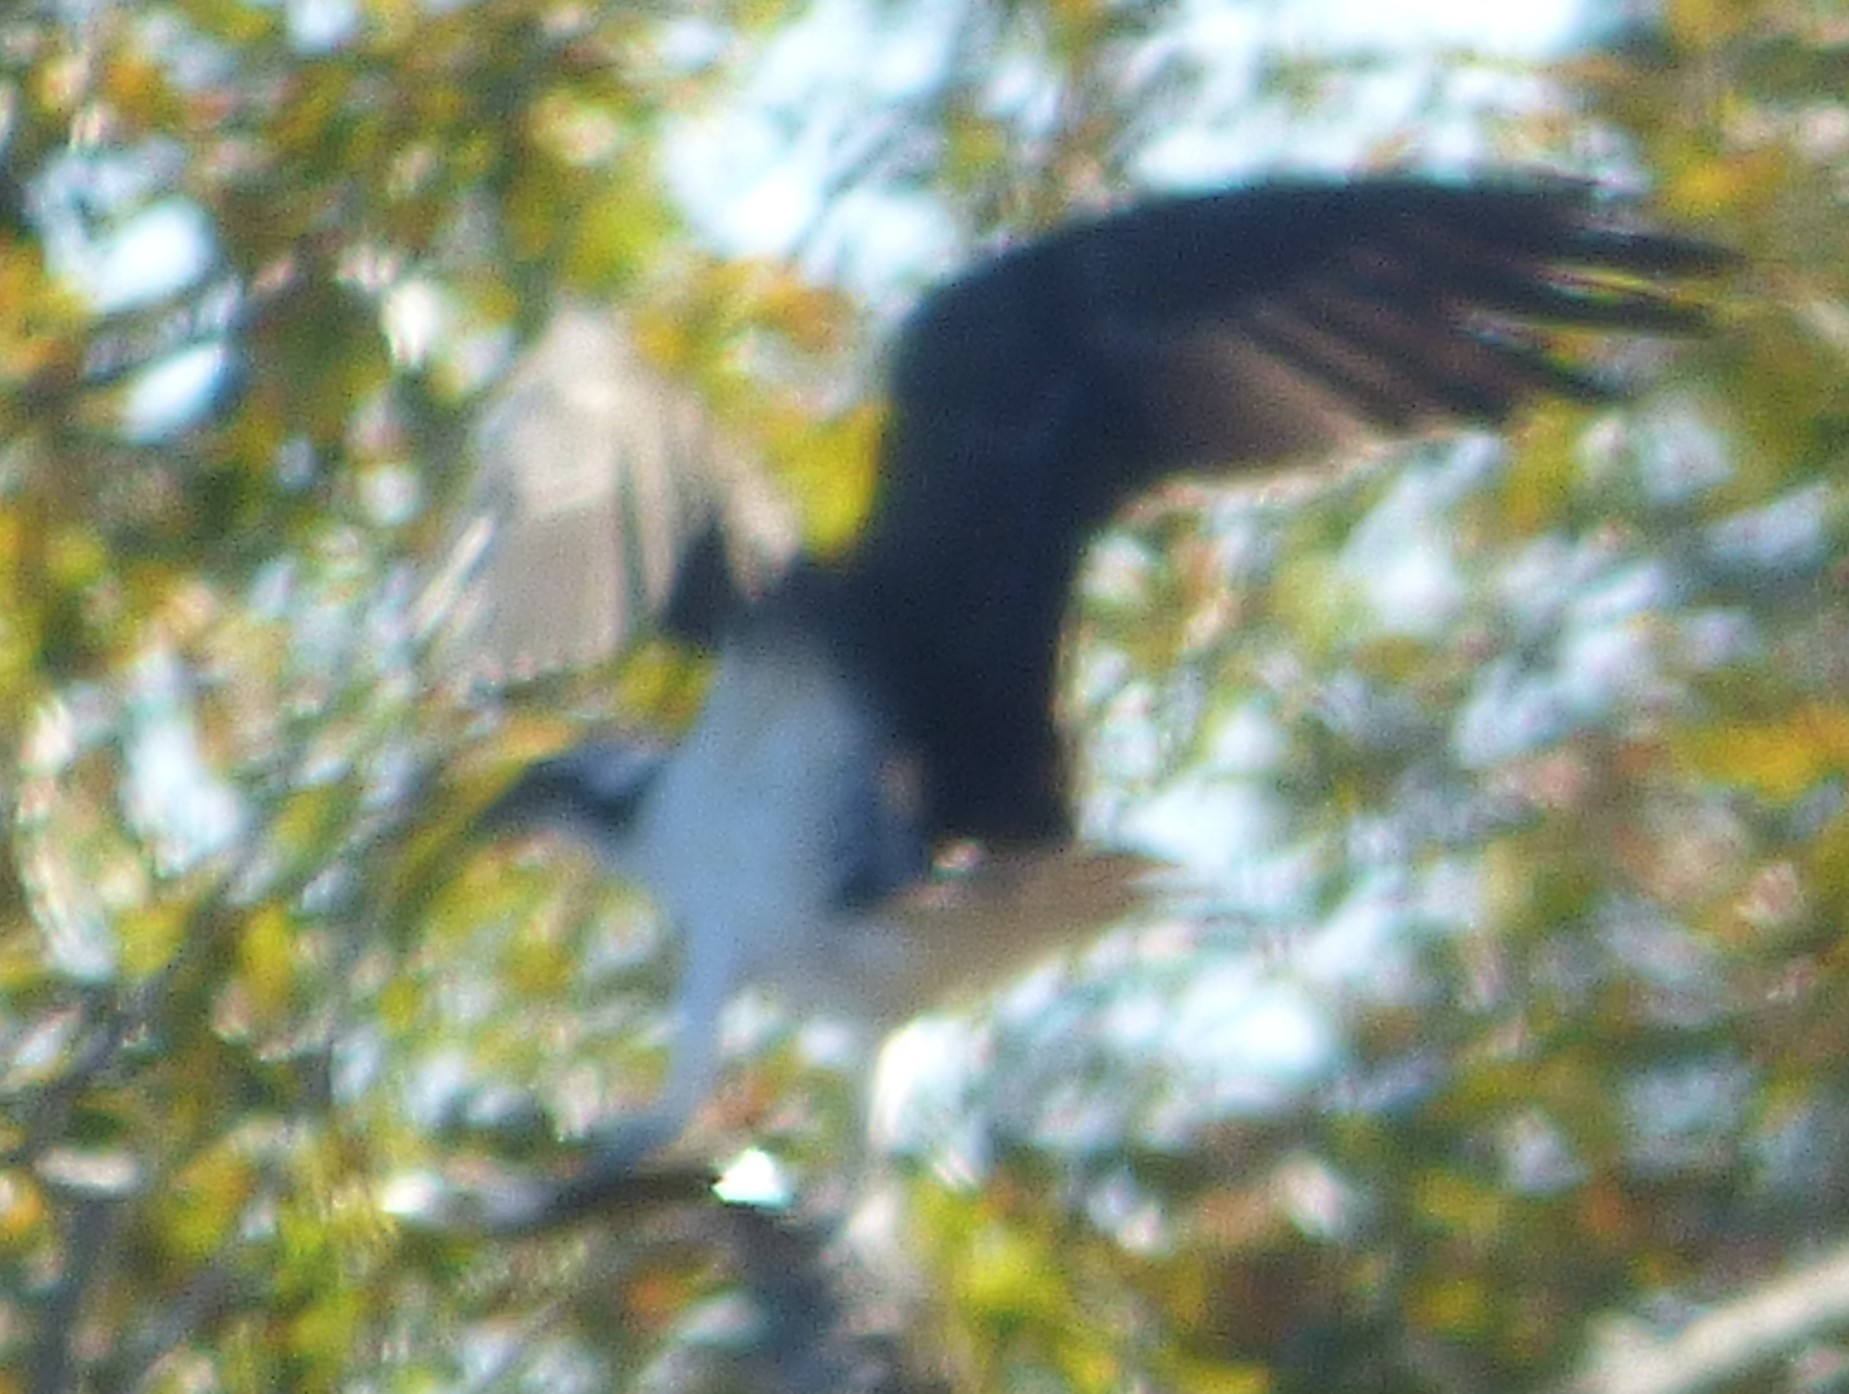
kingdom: Animalia
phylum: Chordata
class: Aves
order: Accipitriformes
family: Pandionidae
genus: Pandion
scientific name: Pandion haliaetus
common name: Osprey
